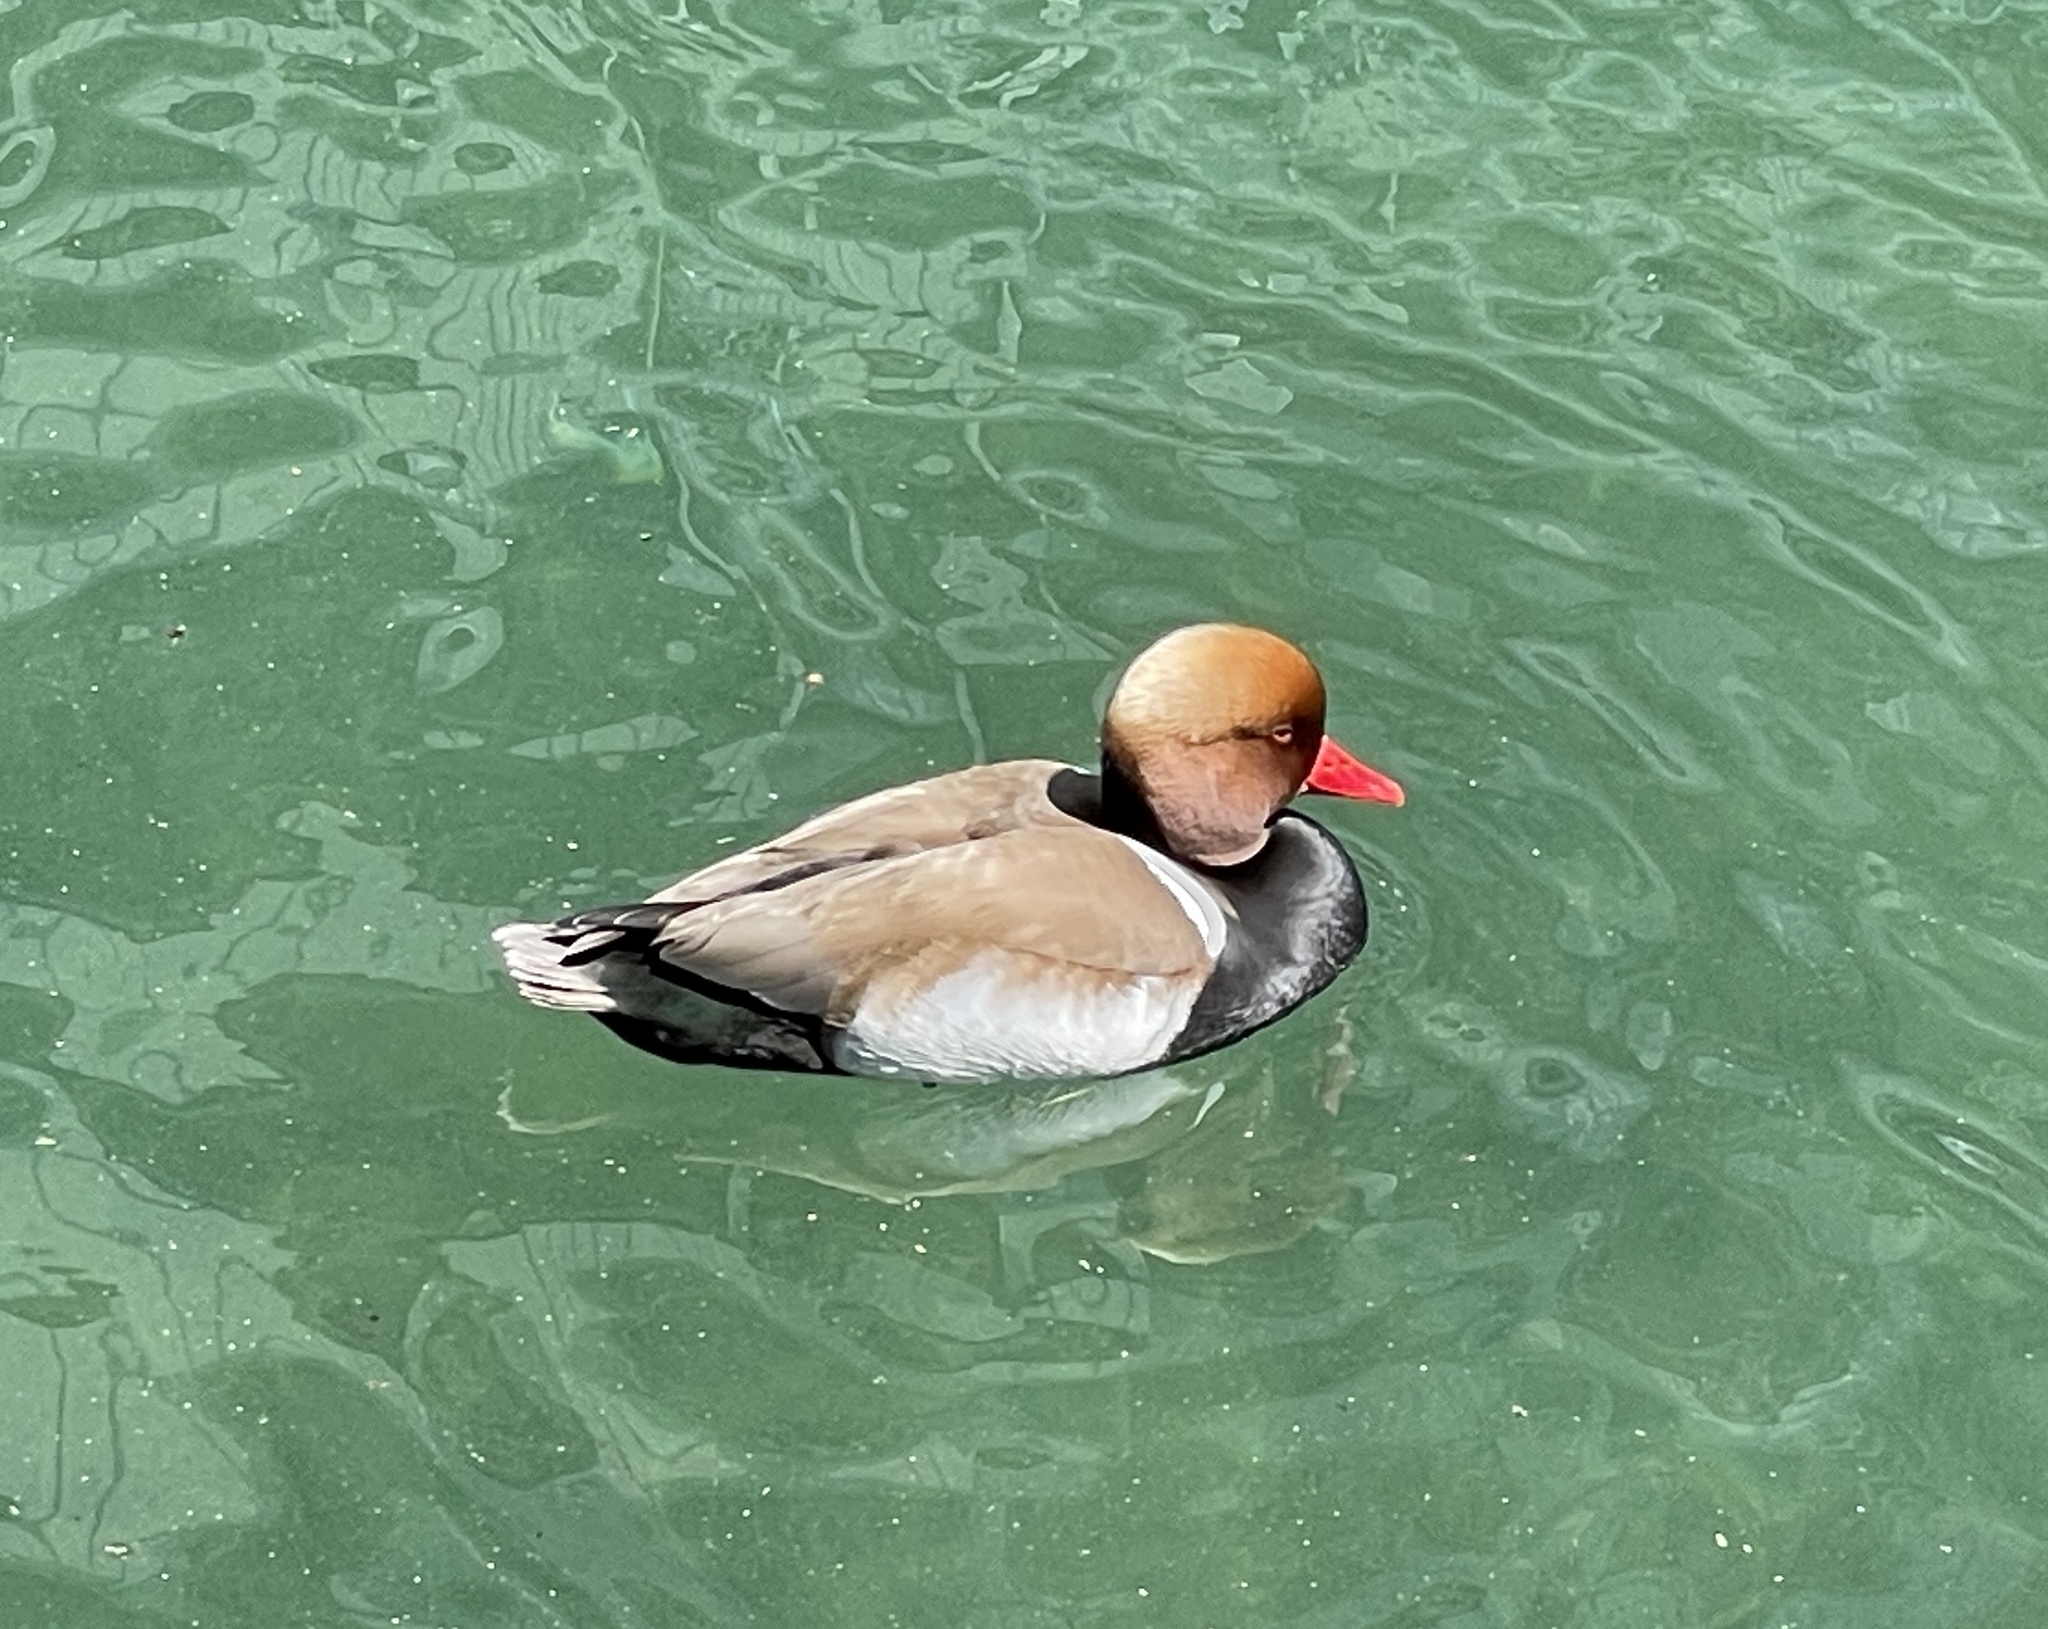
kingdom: Animalia
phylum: Chordata
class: Aves
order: Anseriformes
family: Anatidae
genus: Netta
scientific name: Netta rufina
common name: Red-crested pochard
